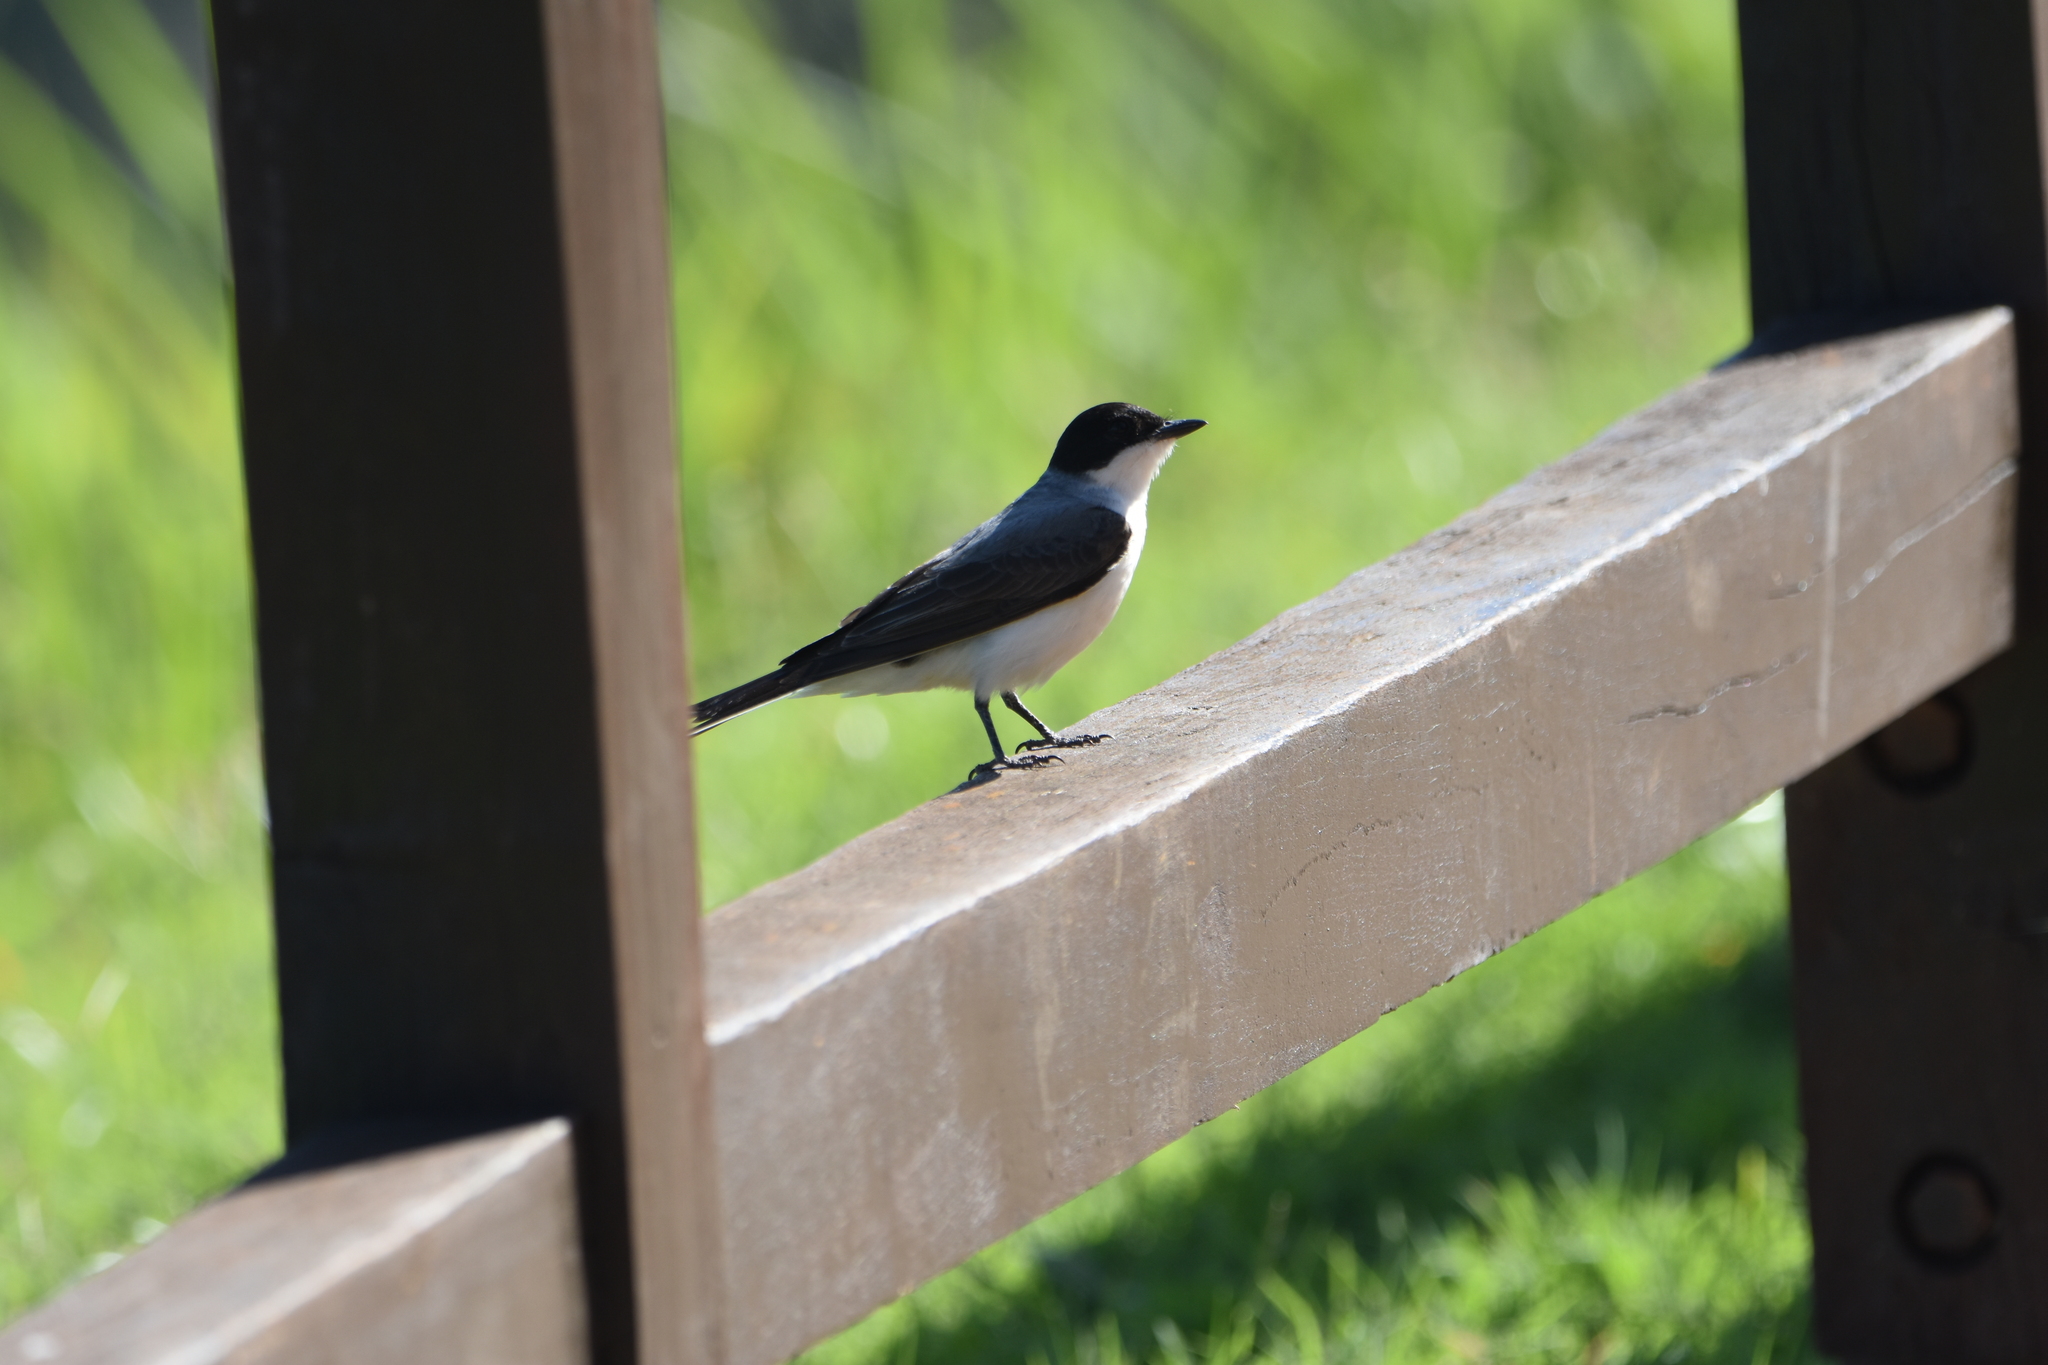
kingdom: Animalia
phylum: Chordata
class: Aves
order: Passeriformes
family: Tyrannidae
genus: Tyrannus
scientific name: Tyrannus savana
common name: Fork-tailed flycatcher
